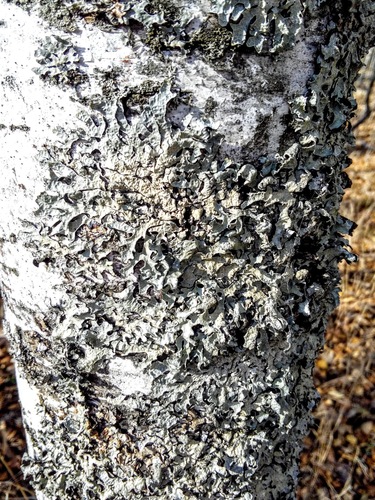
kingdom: Fungi
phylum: Ascomycota
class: Lecanoromycetes
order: Lecanorales
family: Parmeliaceae
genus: Parmelia
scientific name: Parmelia sulcata
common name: Netted shield lichen
